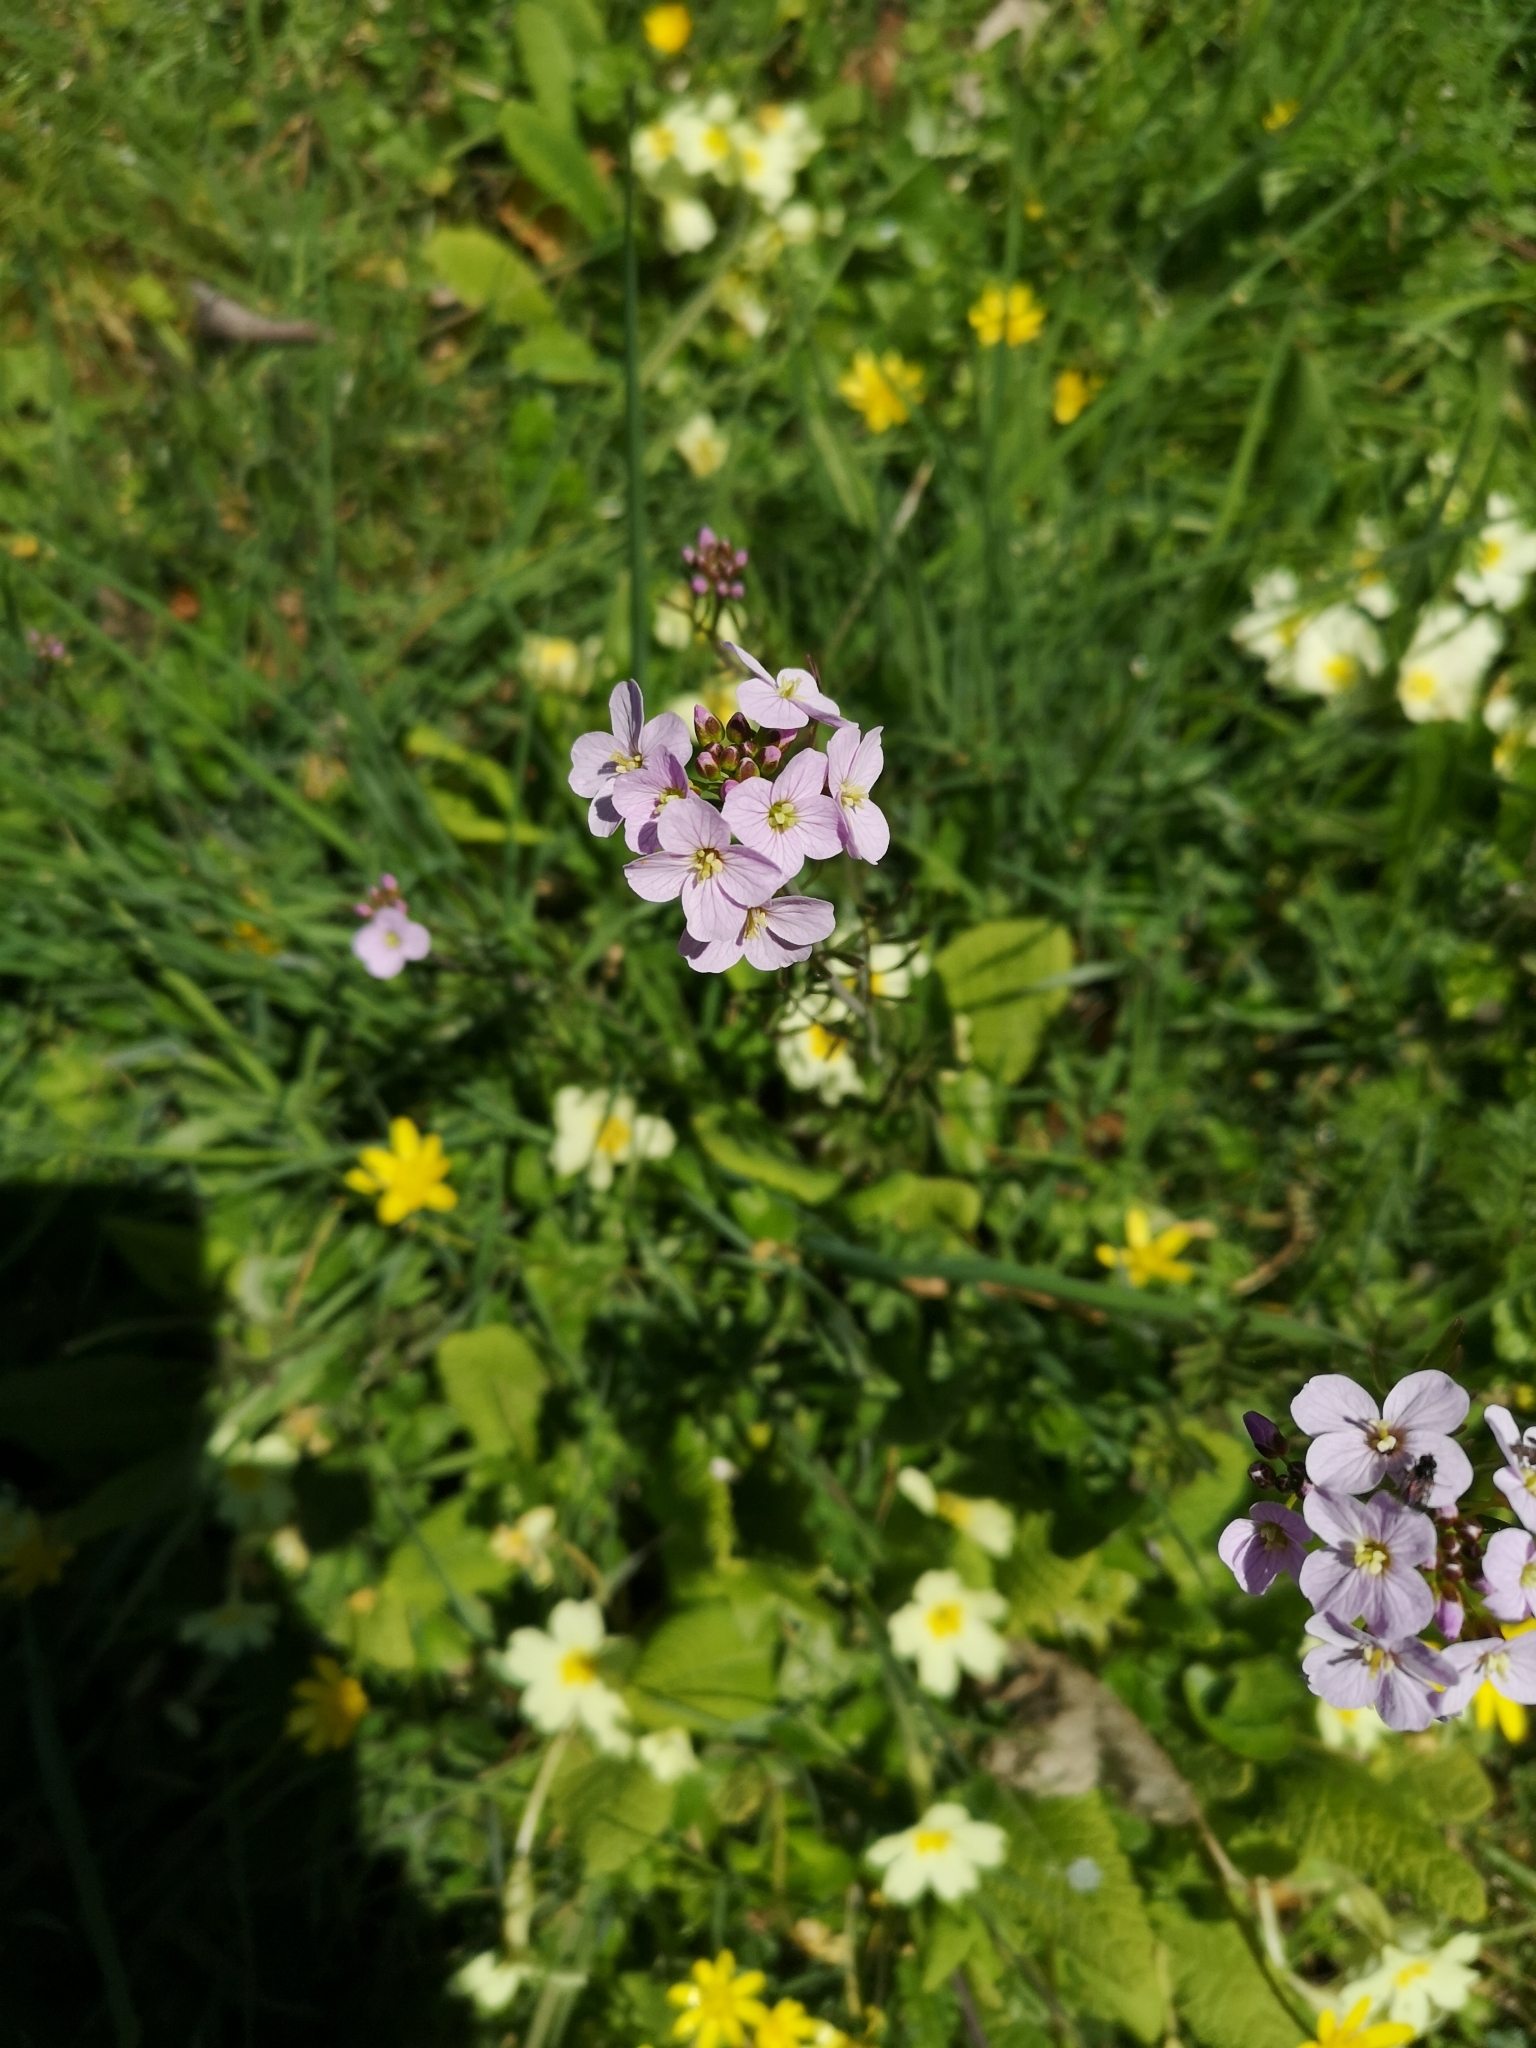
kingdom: Plantae
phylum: Tracheophyta
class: Magnoliopsida
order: Brassicales
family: Brassicaceae
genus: Cardamine
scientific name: Cardamine pratensis
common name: Cuckoo flower
